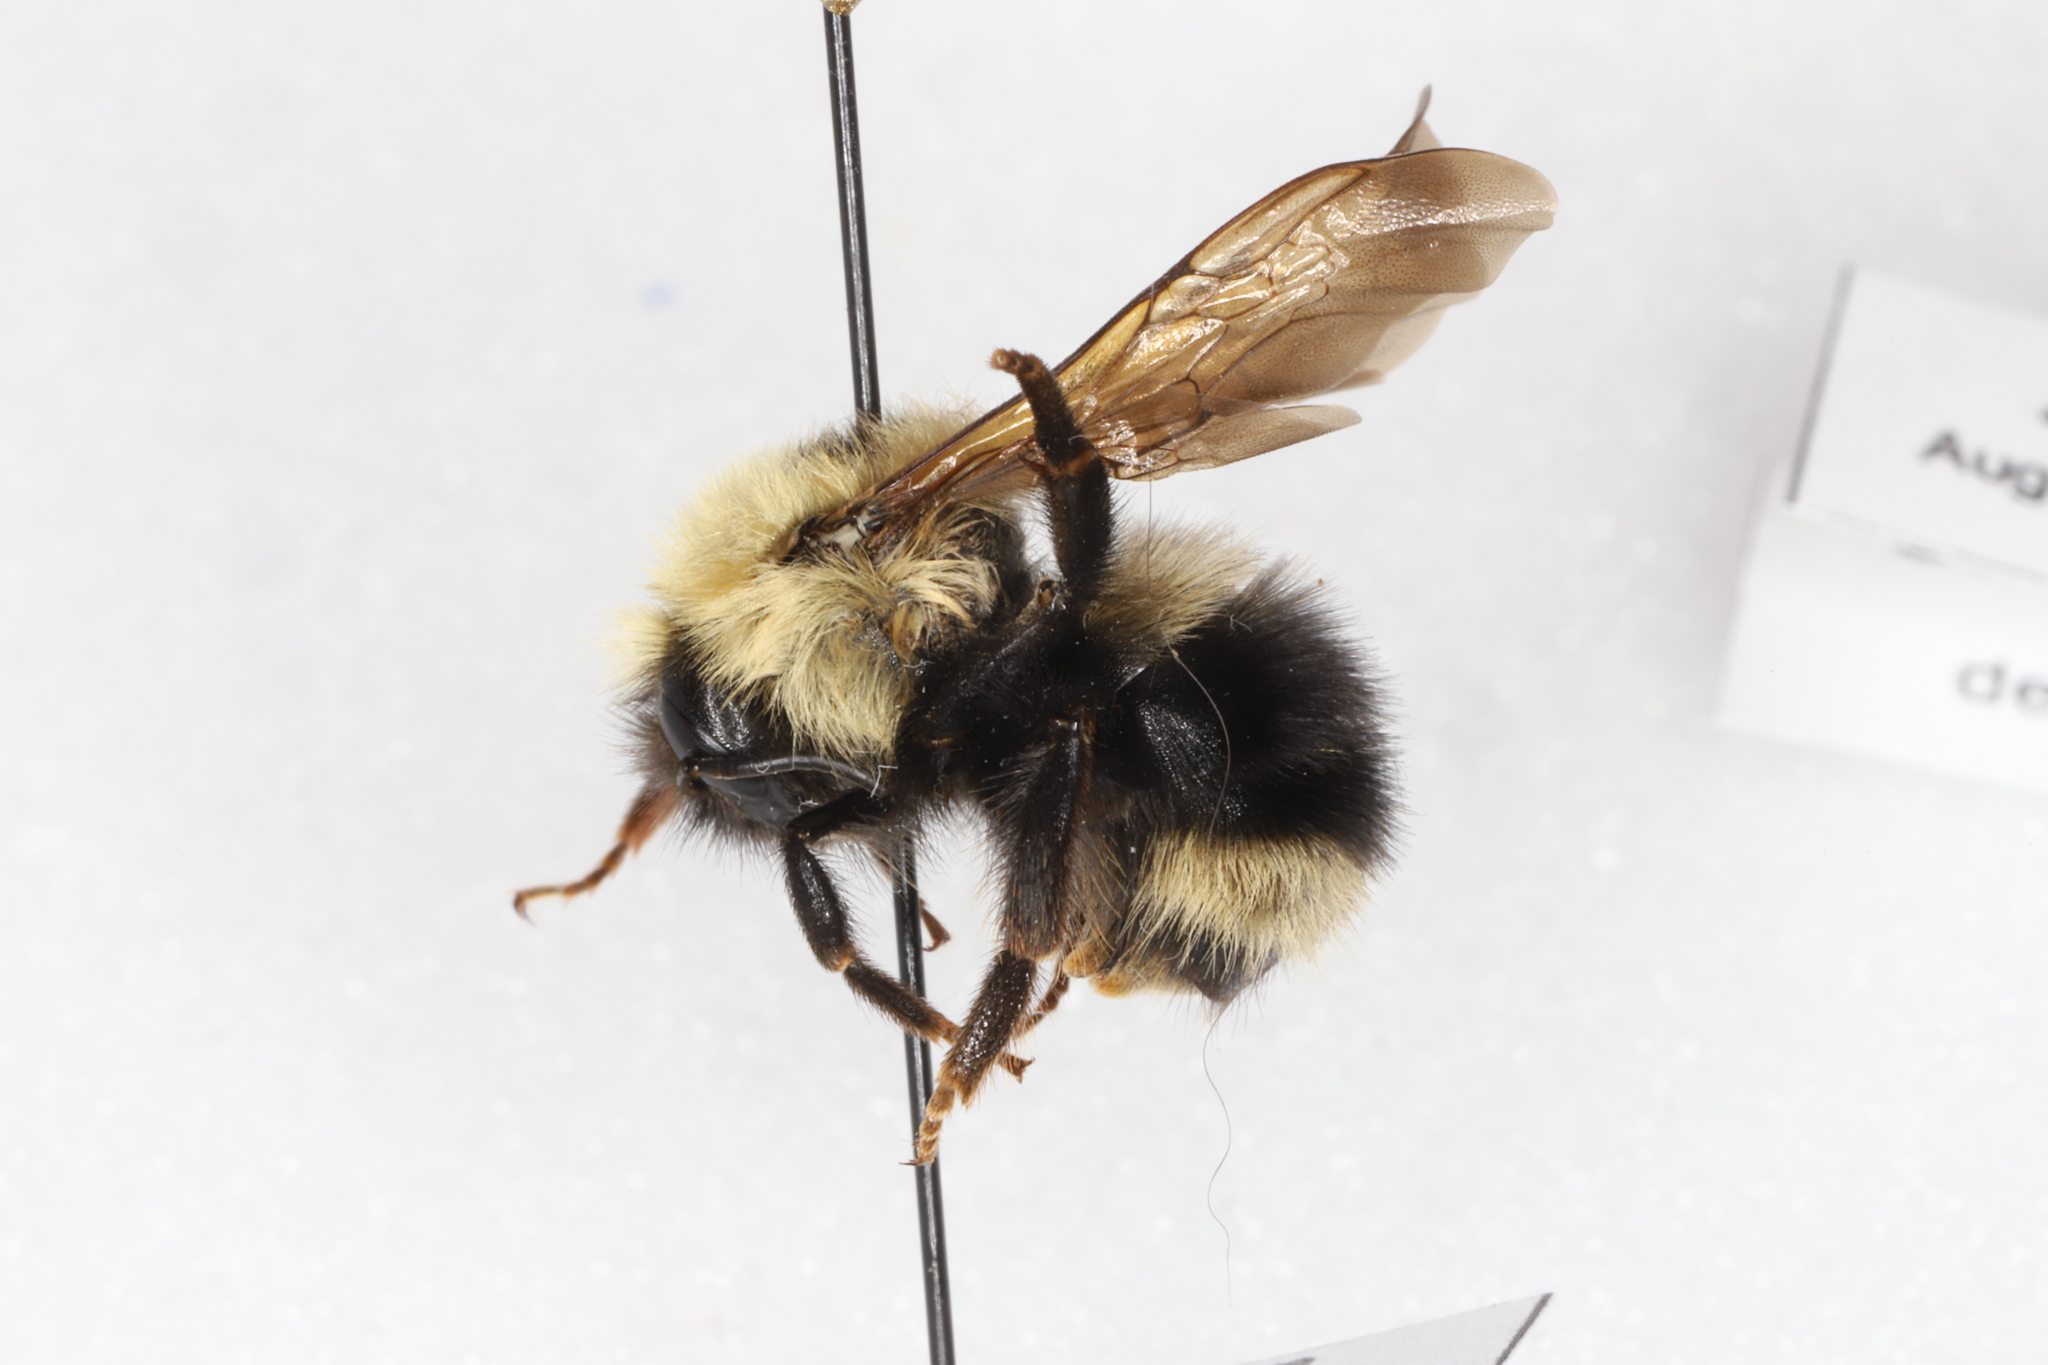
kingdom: Animalia
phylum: Arthropoda
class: Insecta
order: Hymenoptera
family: Apidae
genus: Bombus
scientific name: Bombus flavidus
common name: Fernald cuckoo bumble bee
